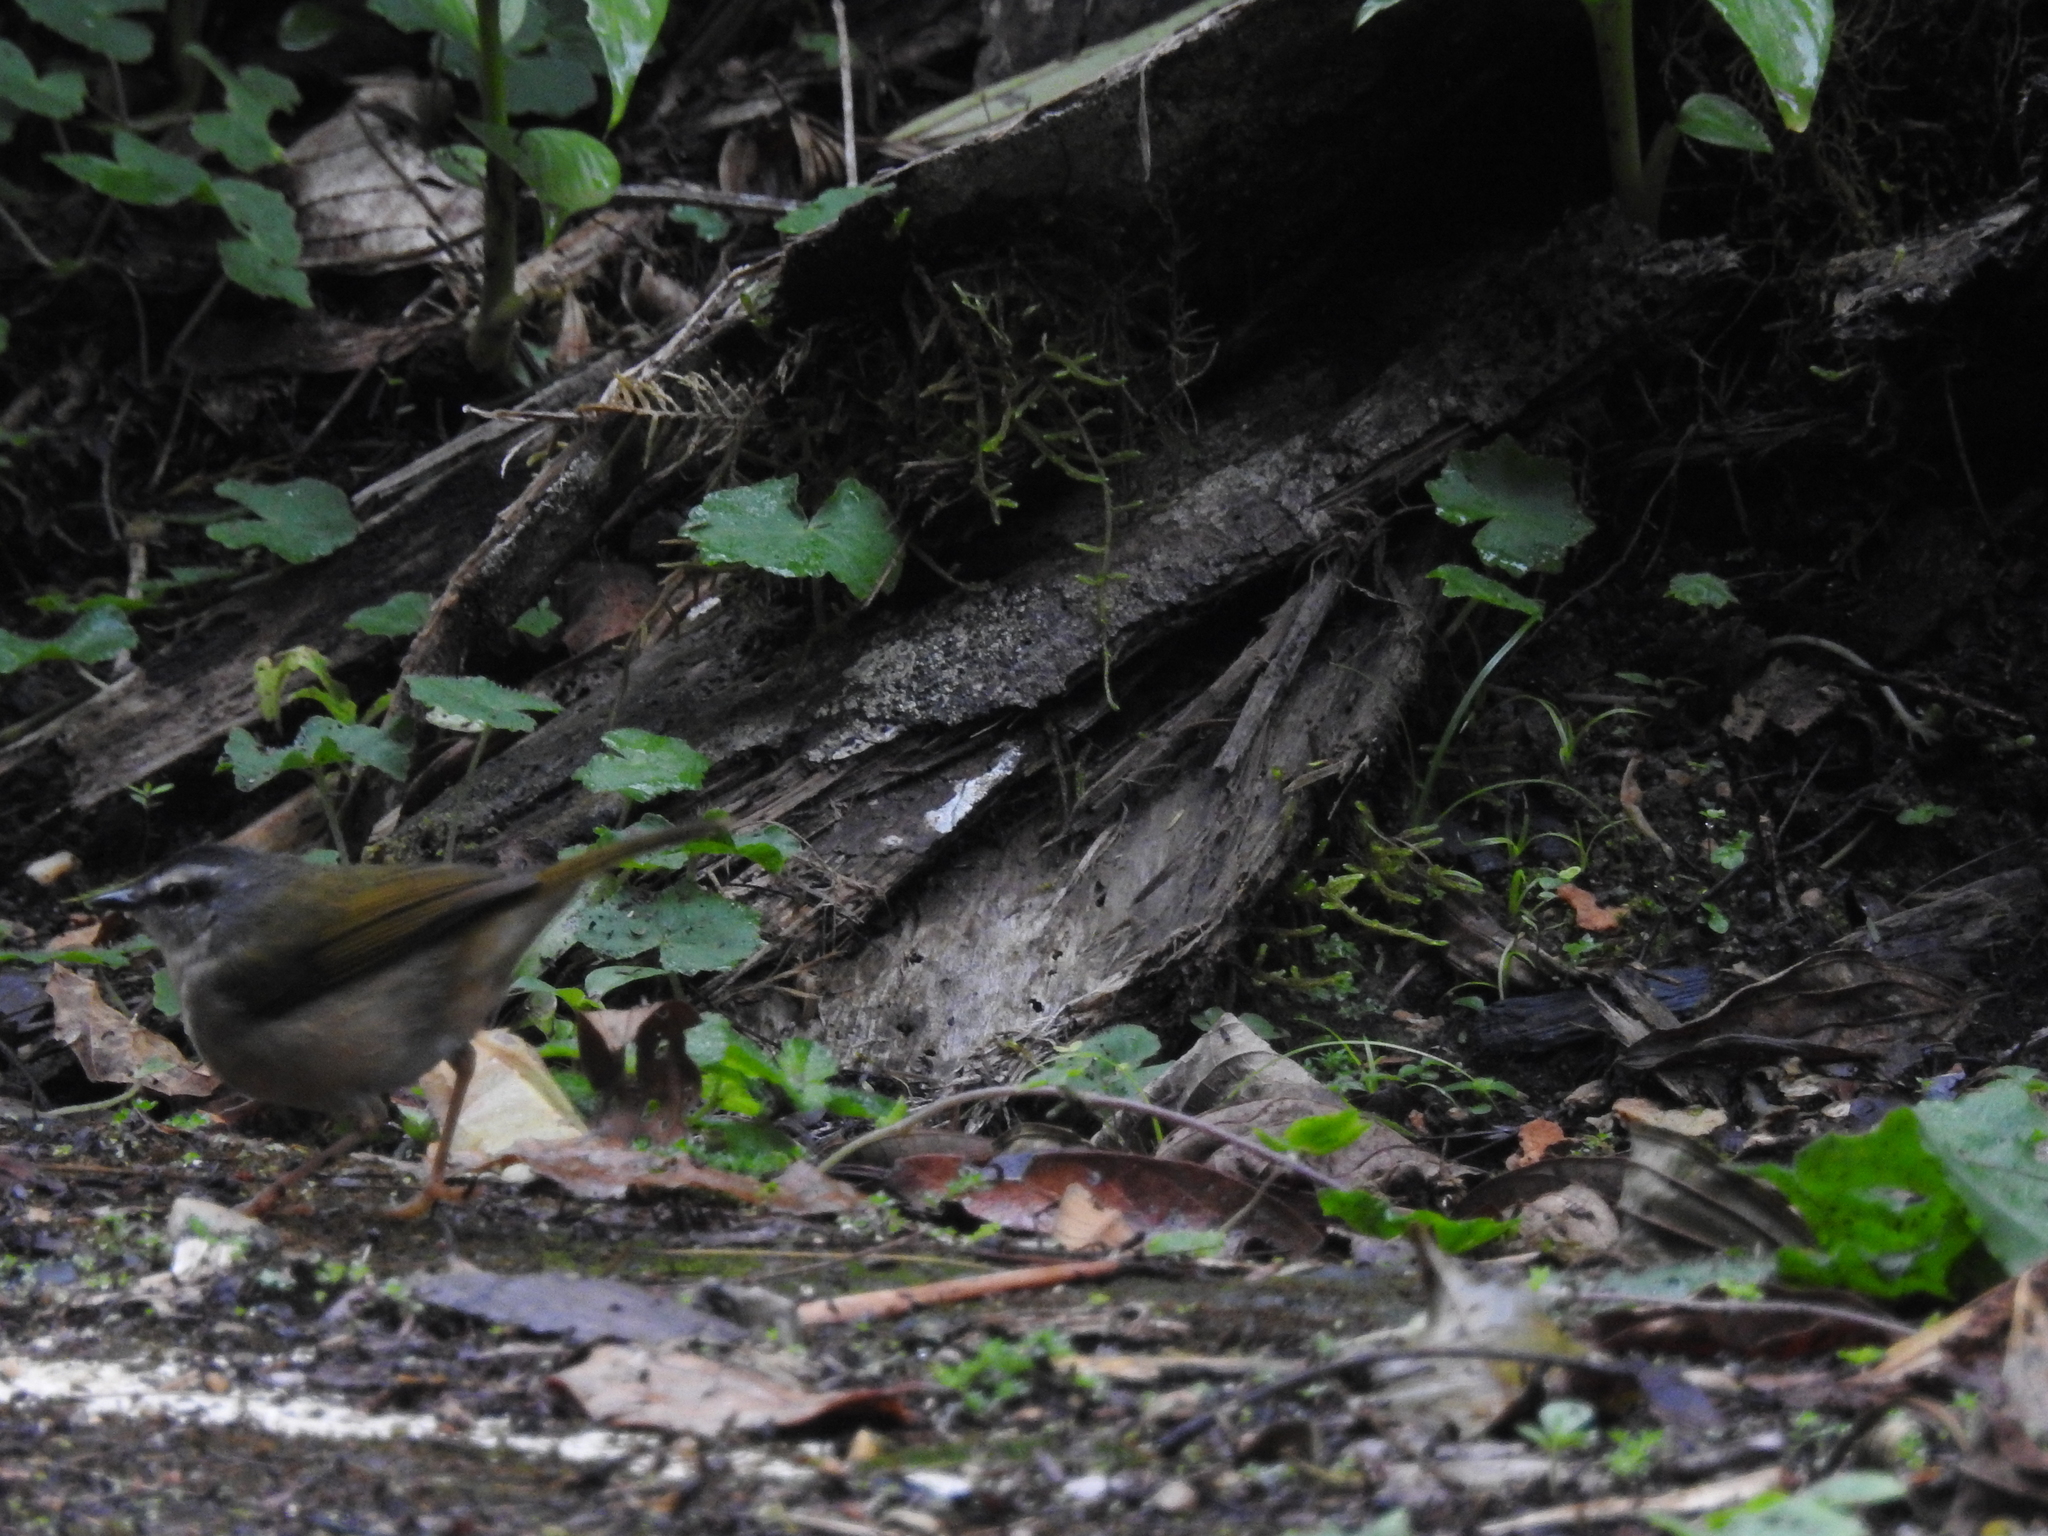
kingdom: Animalia
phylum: Chordata
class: Aves
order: Passeriformes
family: Parulidae
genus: Myiothlypis
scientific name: Myiothlypis rivularis
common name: Riverbank warbler
